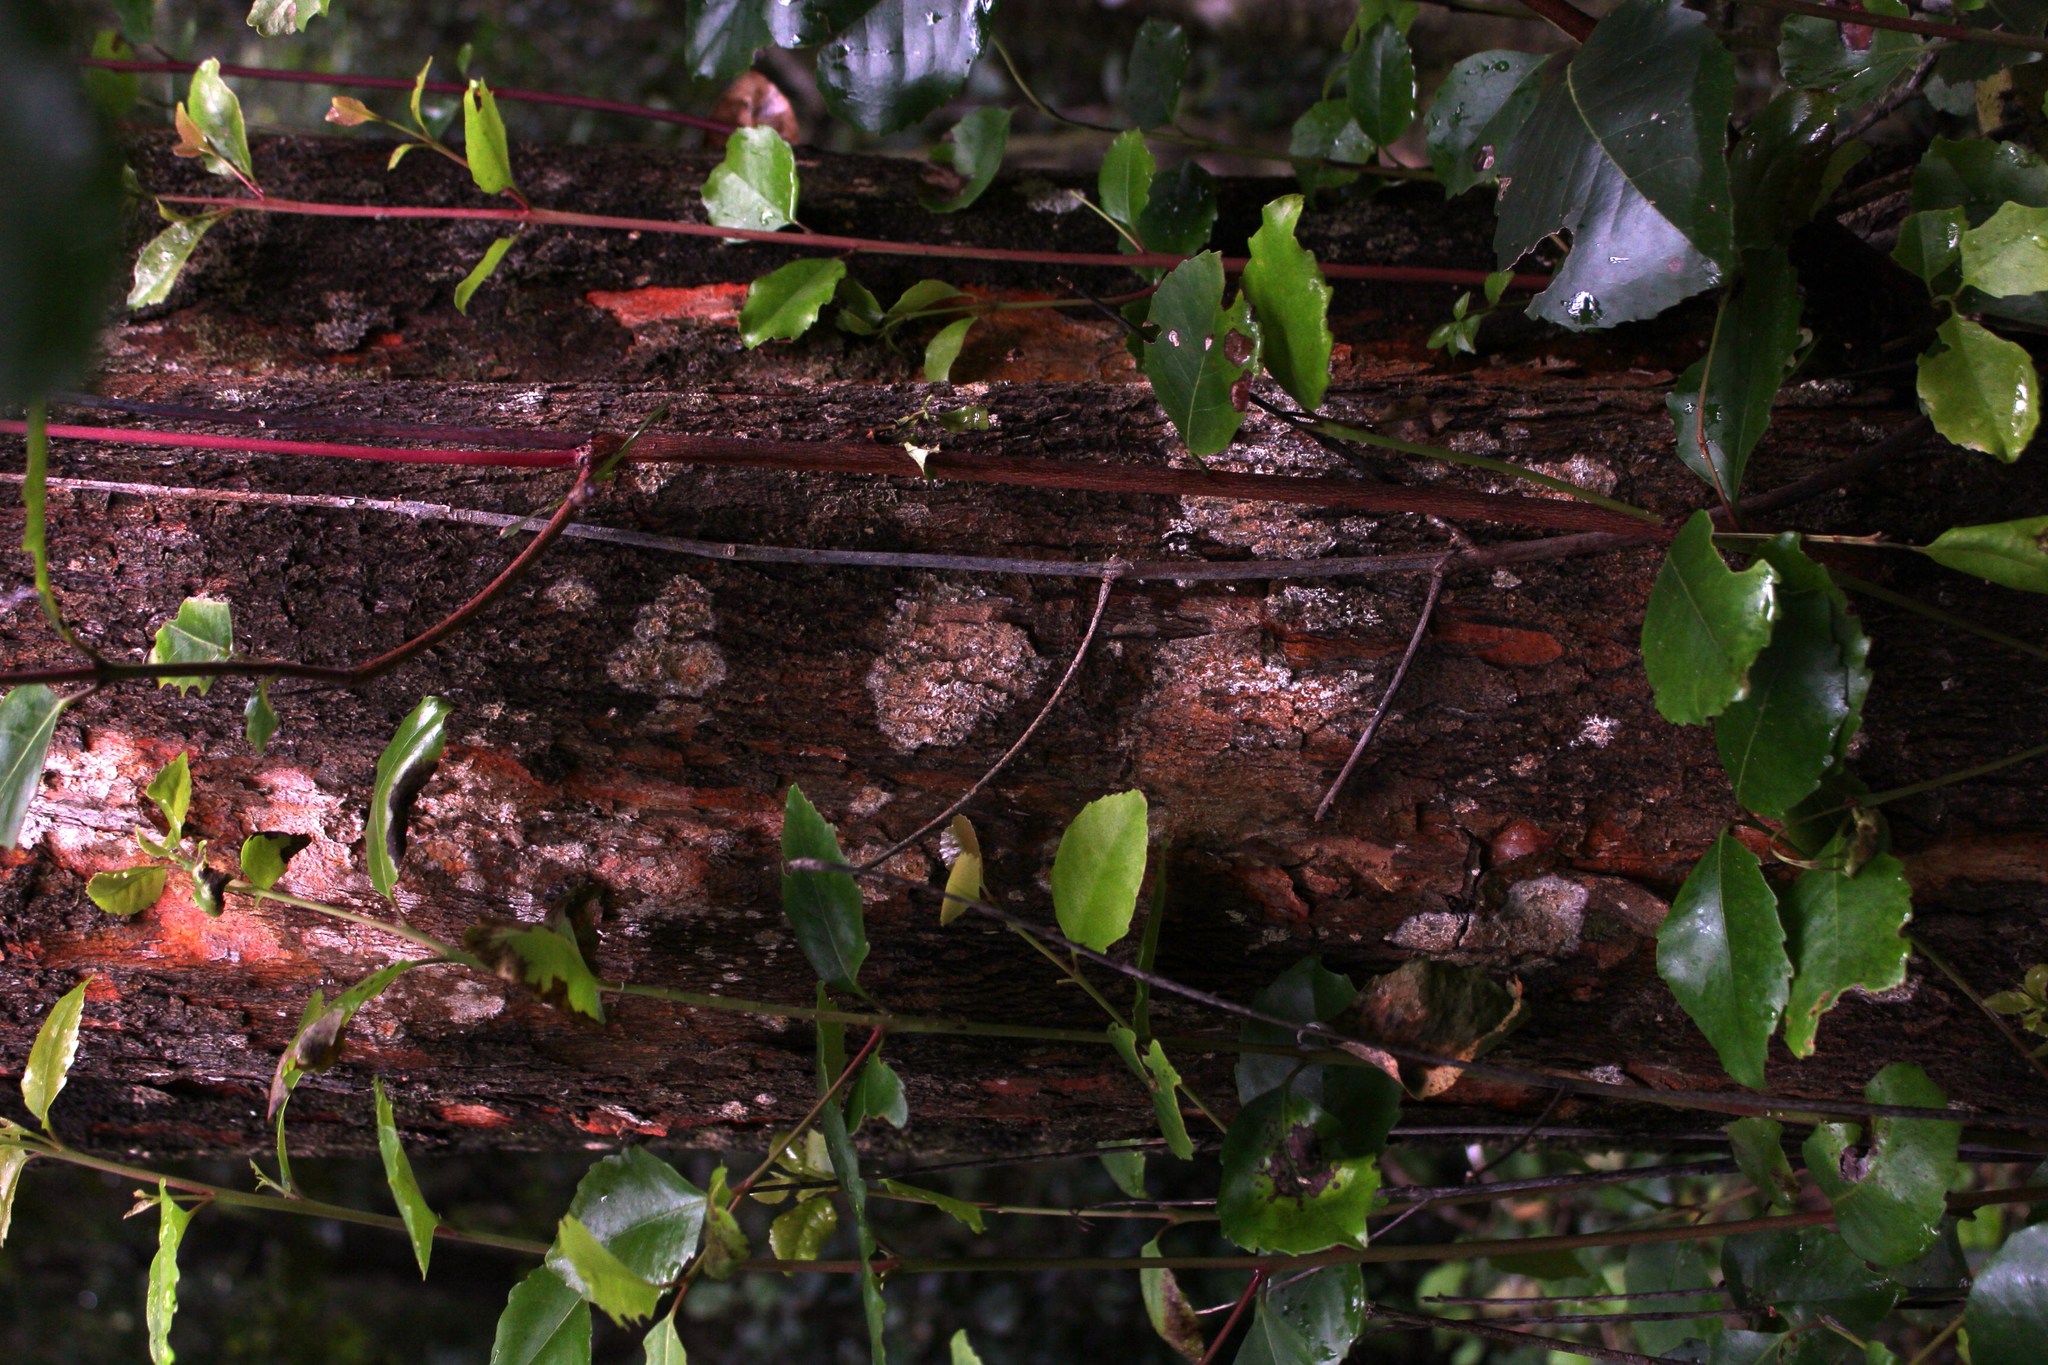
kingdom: Plantae
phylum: Tracheophyta
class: Magnoliopsida
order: Celastrales
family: Celastraceae
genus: Cassine
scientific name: Cassine peragua
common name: Cape saffron
